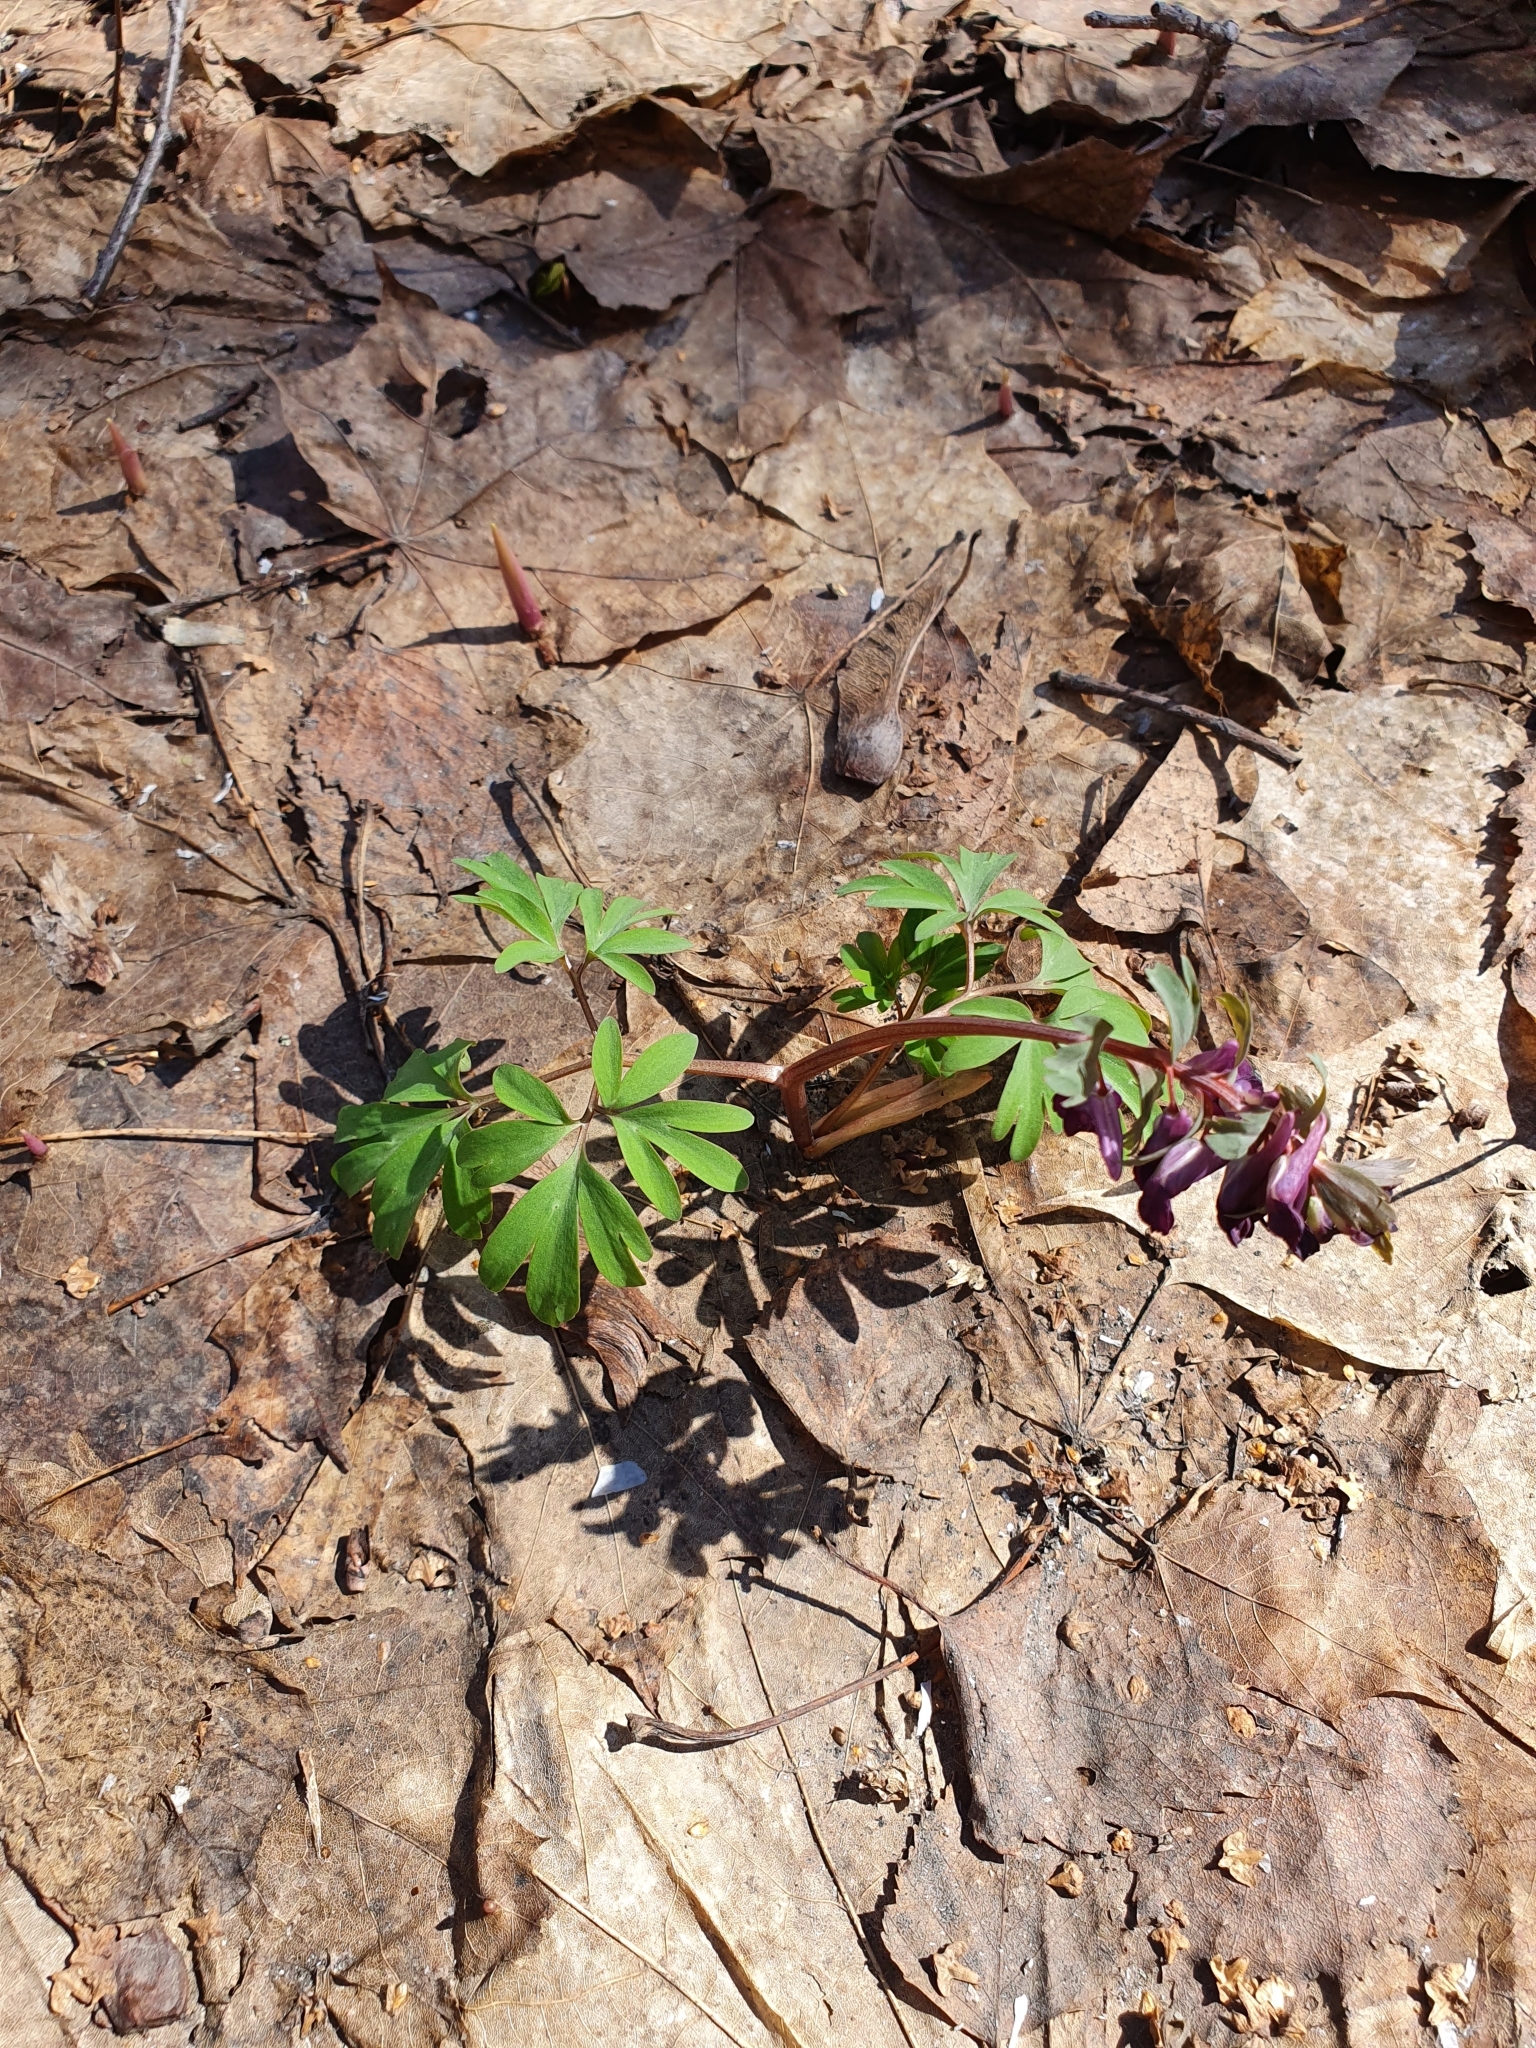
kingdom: Plantae
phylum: Tracheophyta
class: Magnoliopsida
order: Ranunculales
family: Papaveraceae
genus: Corydalis
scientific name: Corydalis solida
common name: Bird-in-a-bush
